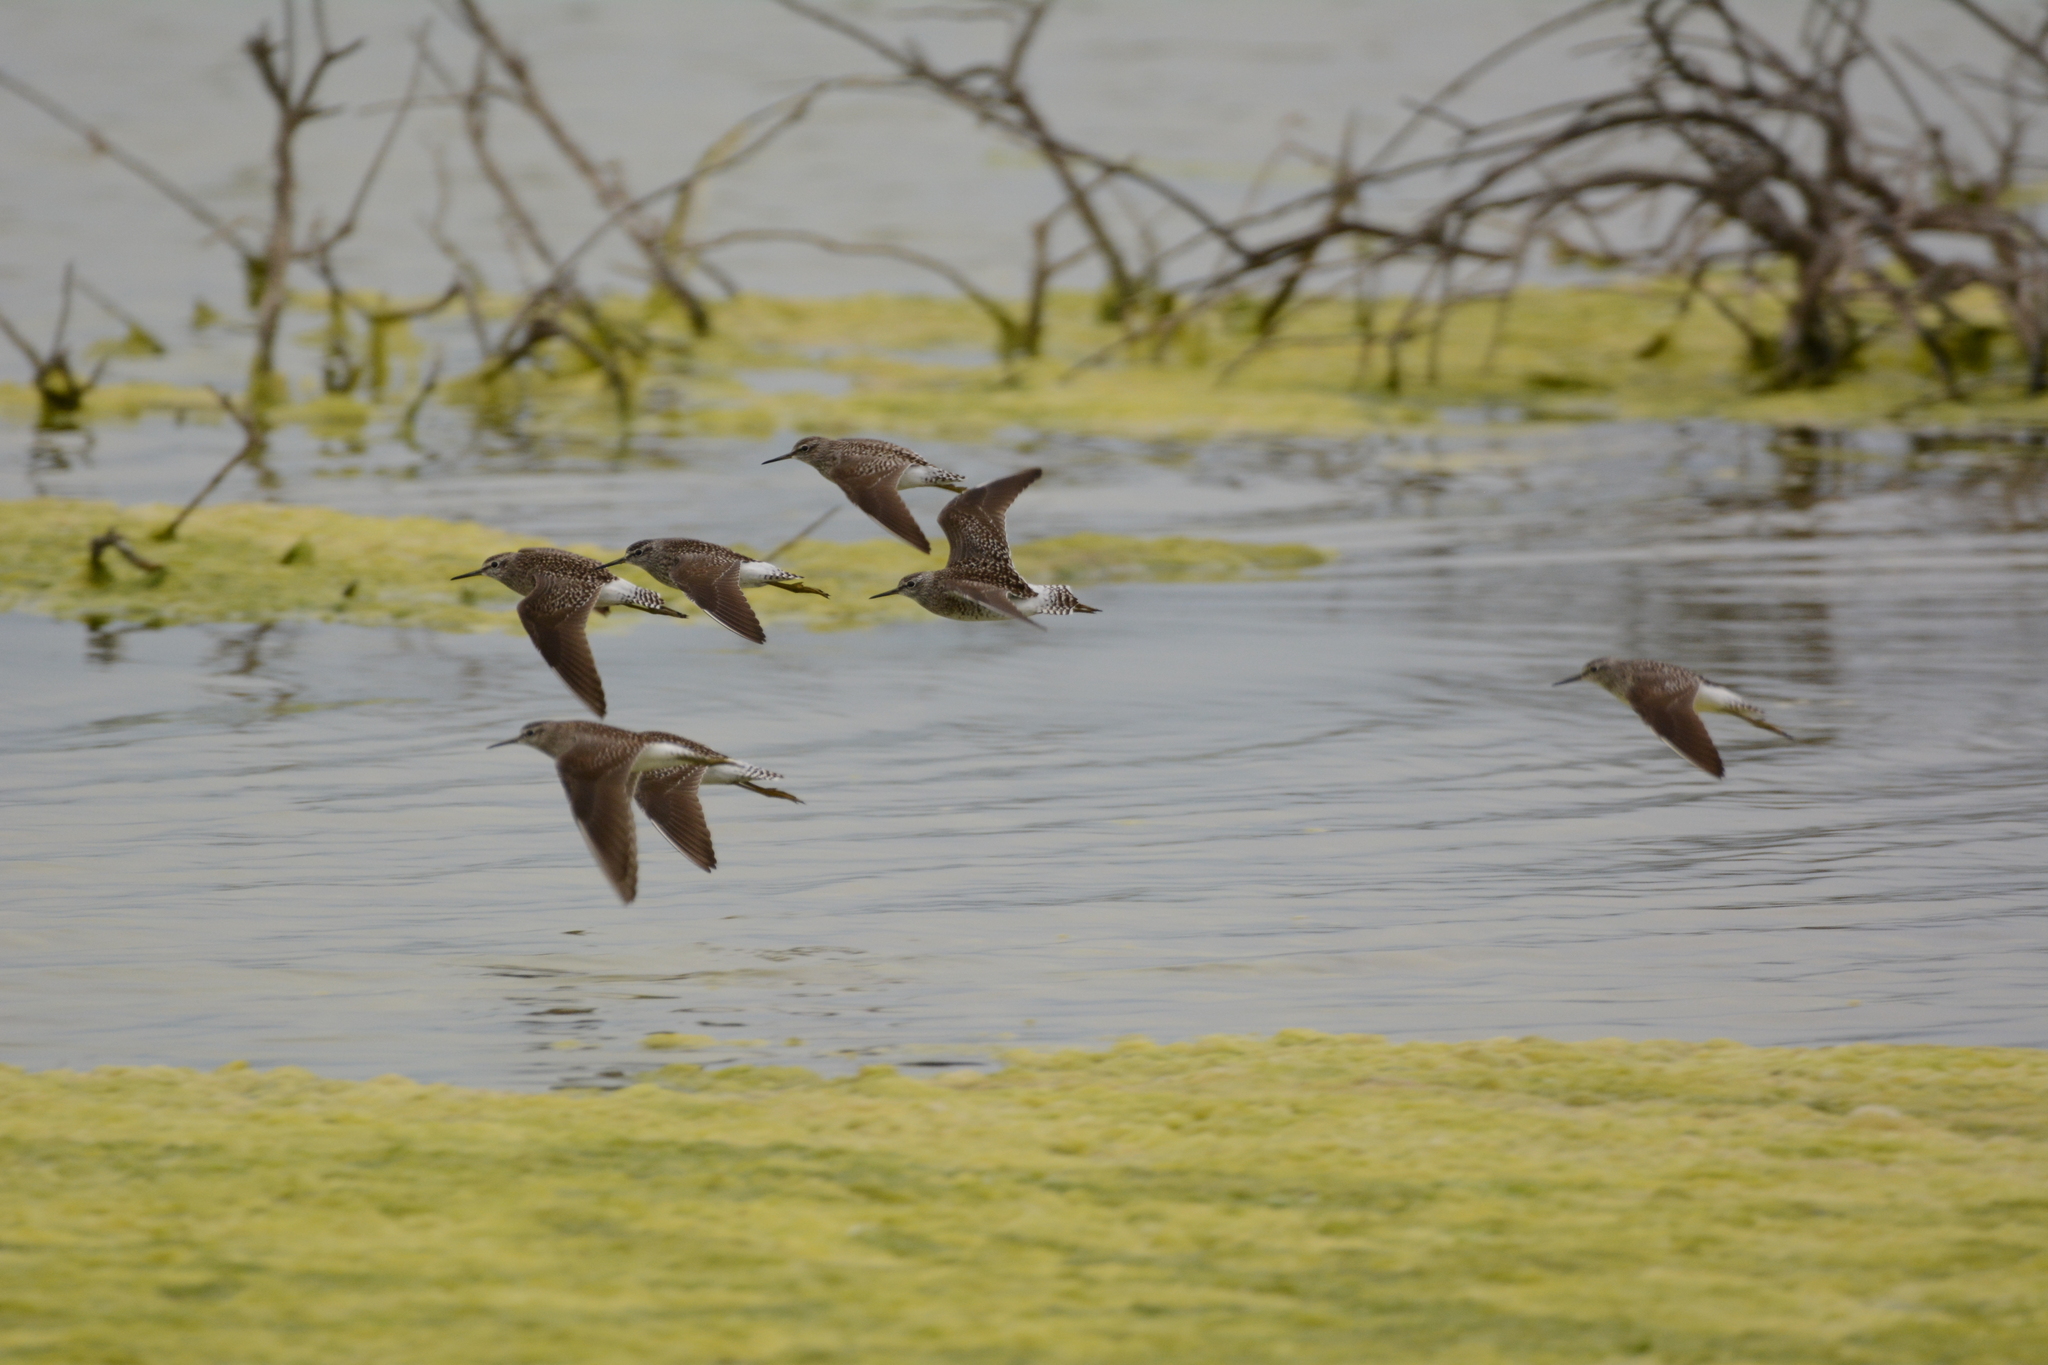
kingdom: Animalia
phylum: Chordata
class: Aves
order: Charadriiformes
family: Scolopacidae
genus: Tringa
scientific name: Tringa glareola
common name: Wood sandpiper
